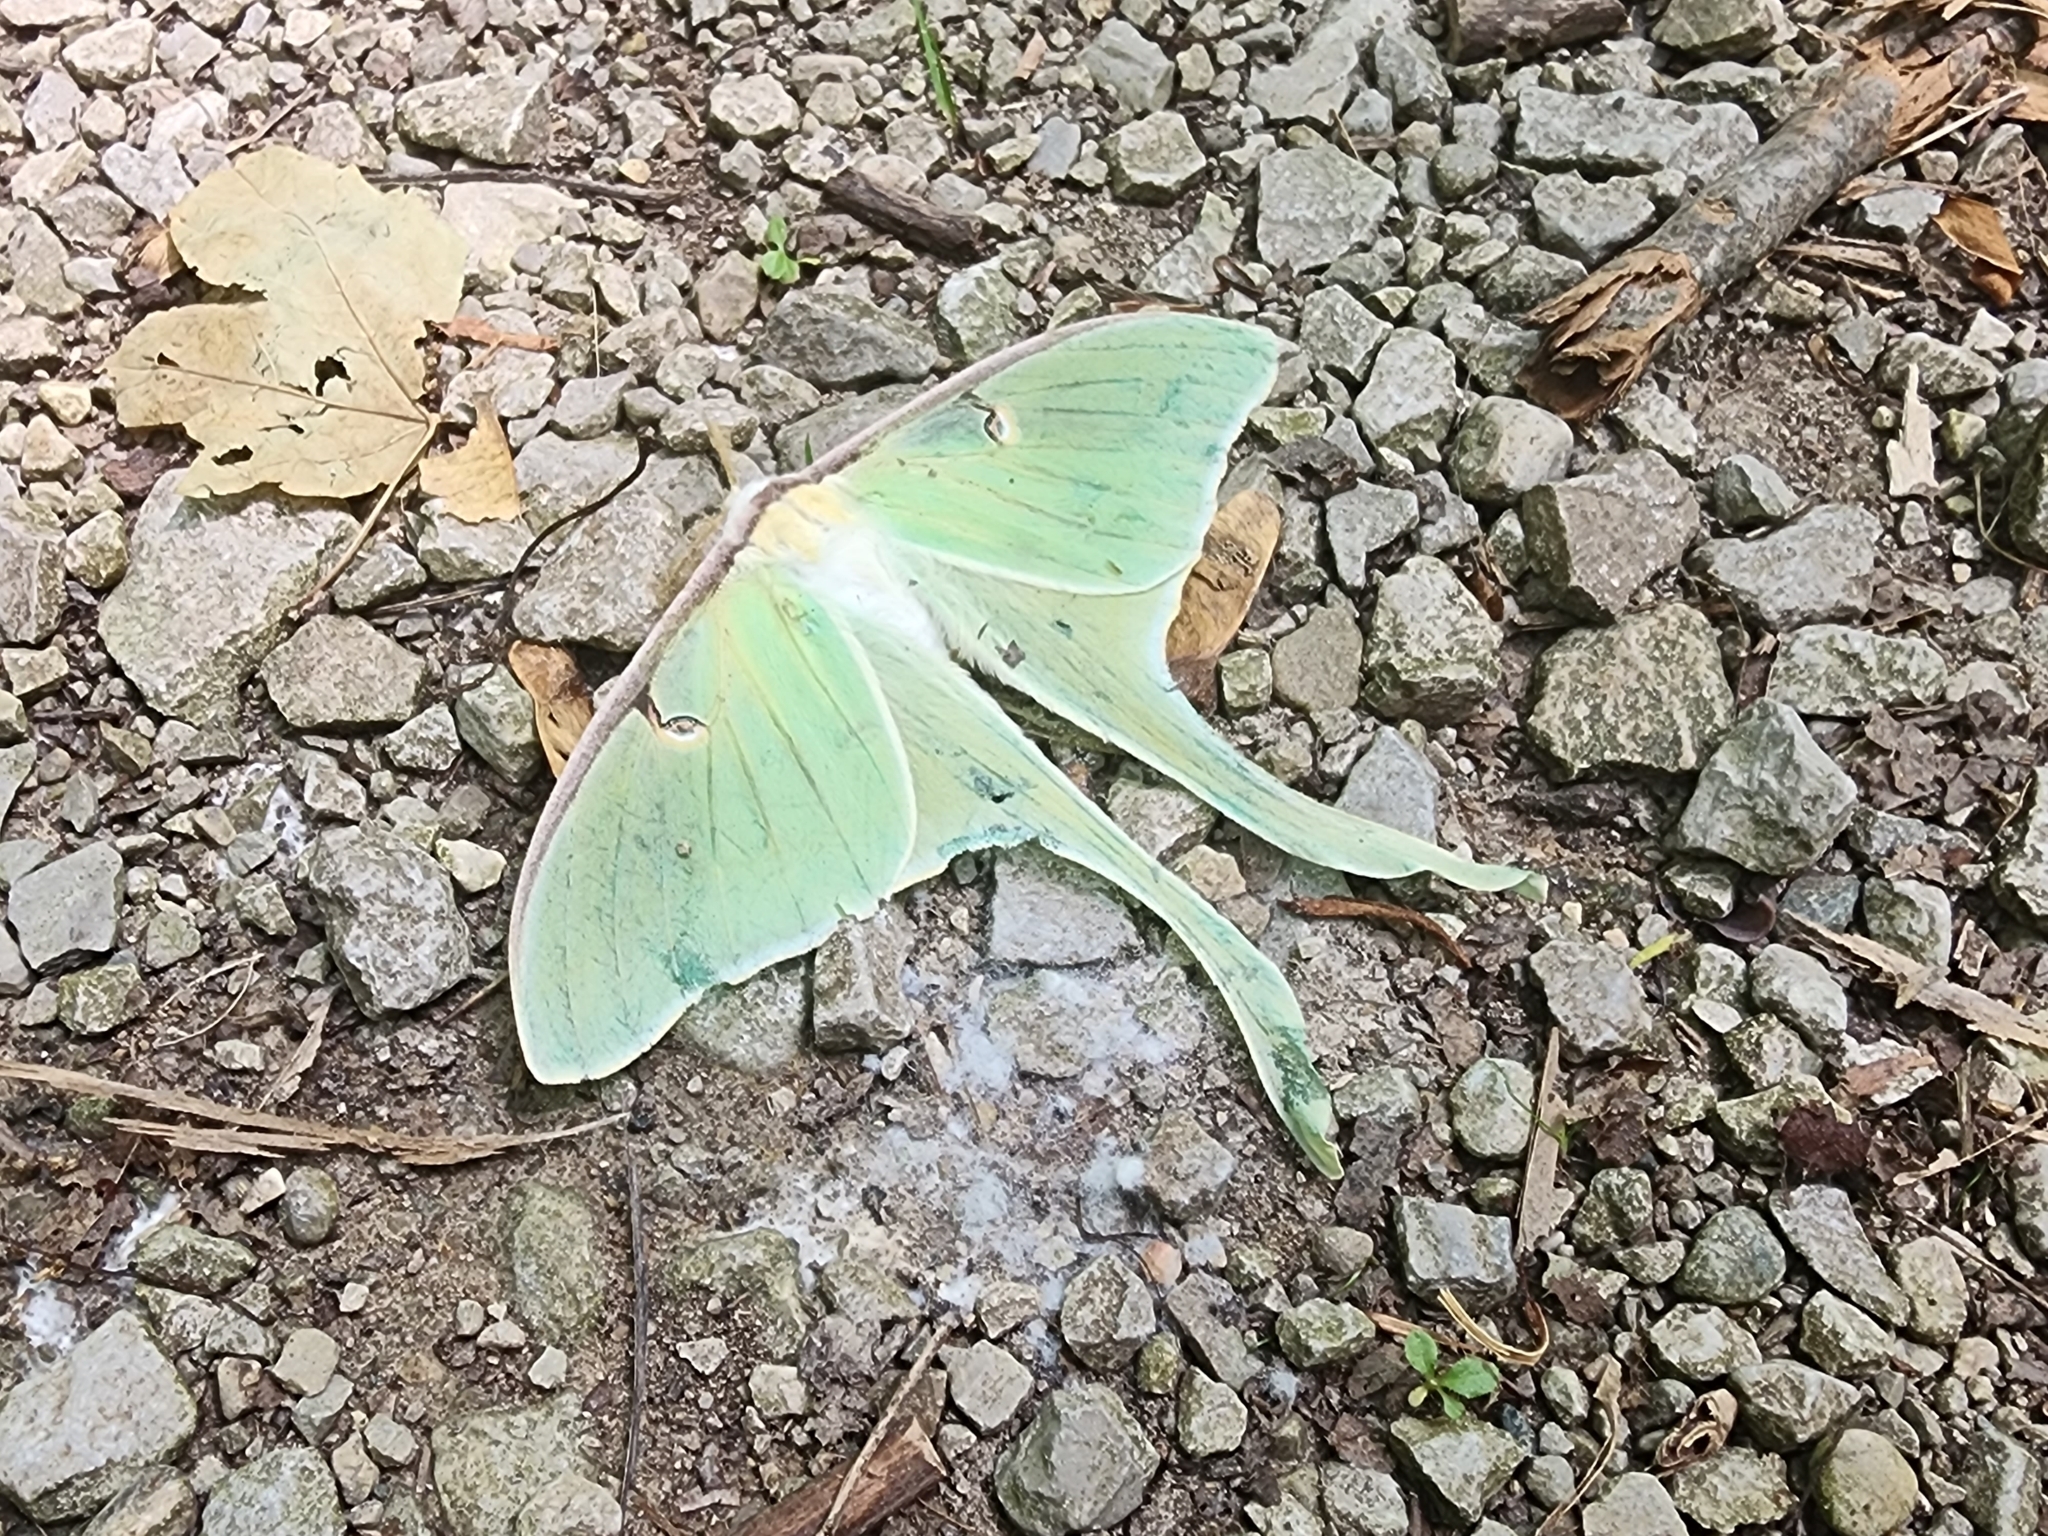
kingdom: Animalia
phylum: Arthropoda
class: Insecta
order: Lepidoptera
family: Saturniidae
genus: Actias
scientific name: Actias luna
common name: Luna moth
